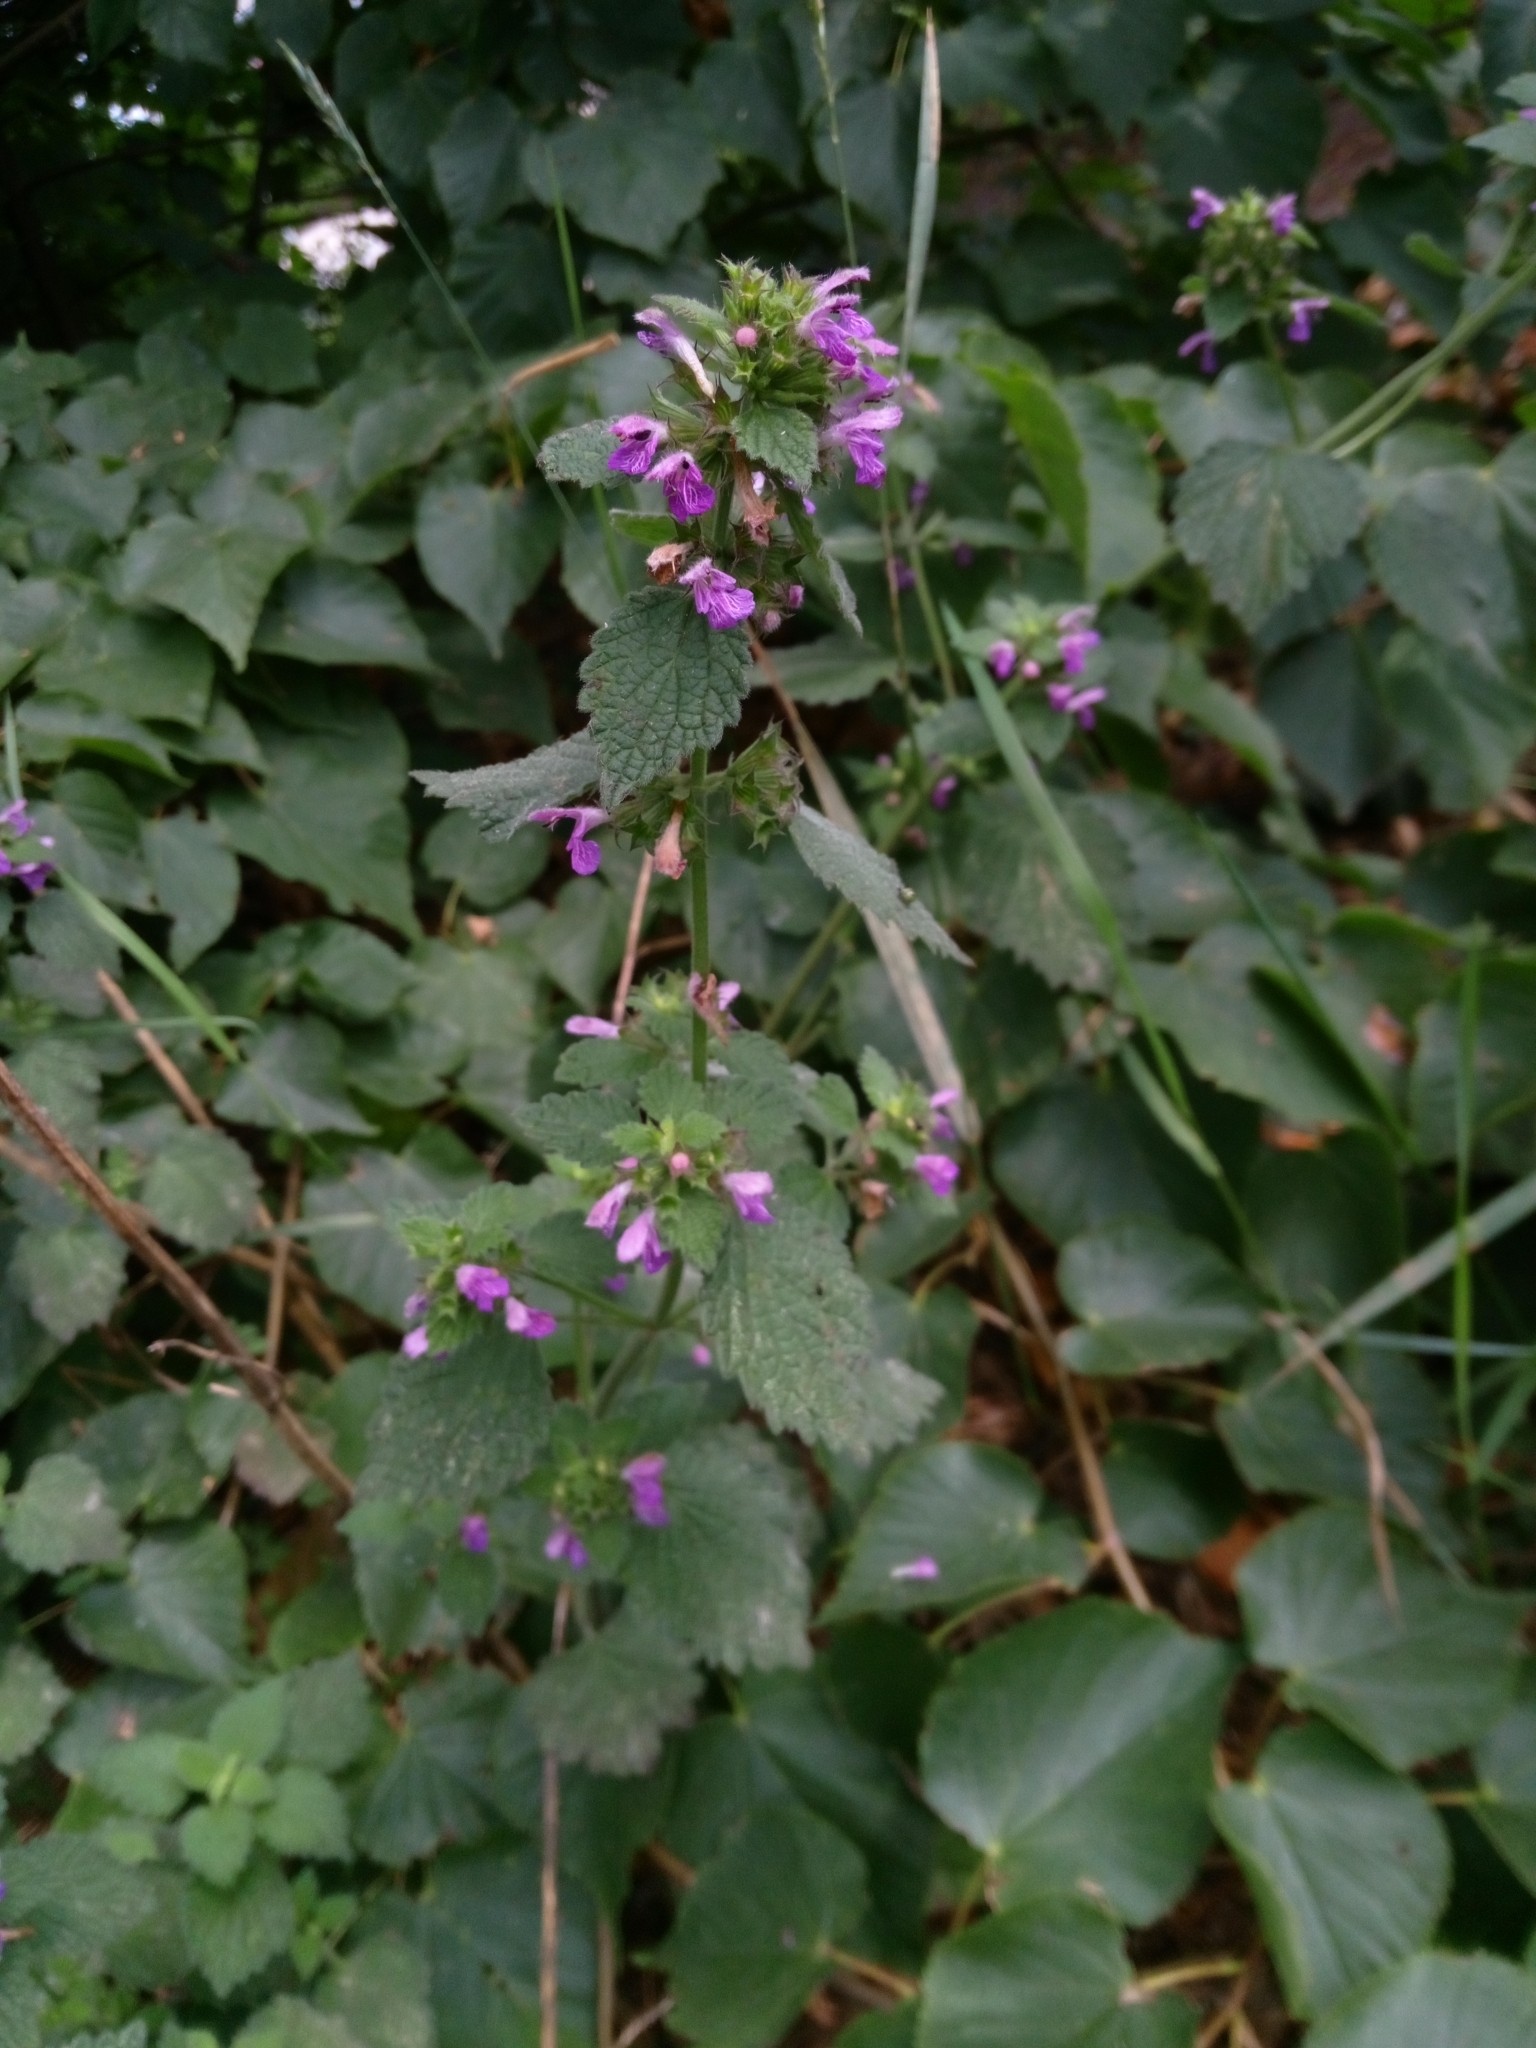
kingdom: Plantae
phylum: Tracheophyta
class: Magnoliopsida
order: Lamiales
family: Lamiaceae
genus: Ballota
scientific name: Ballota nigra
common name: Black horehound
